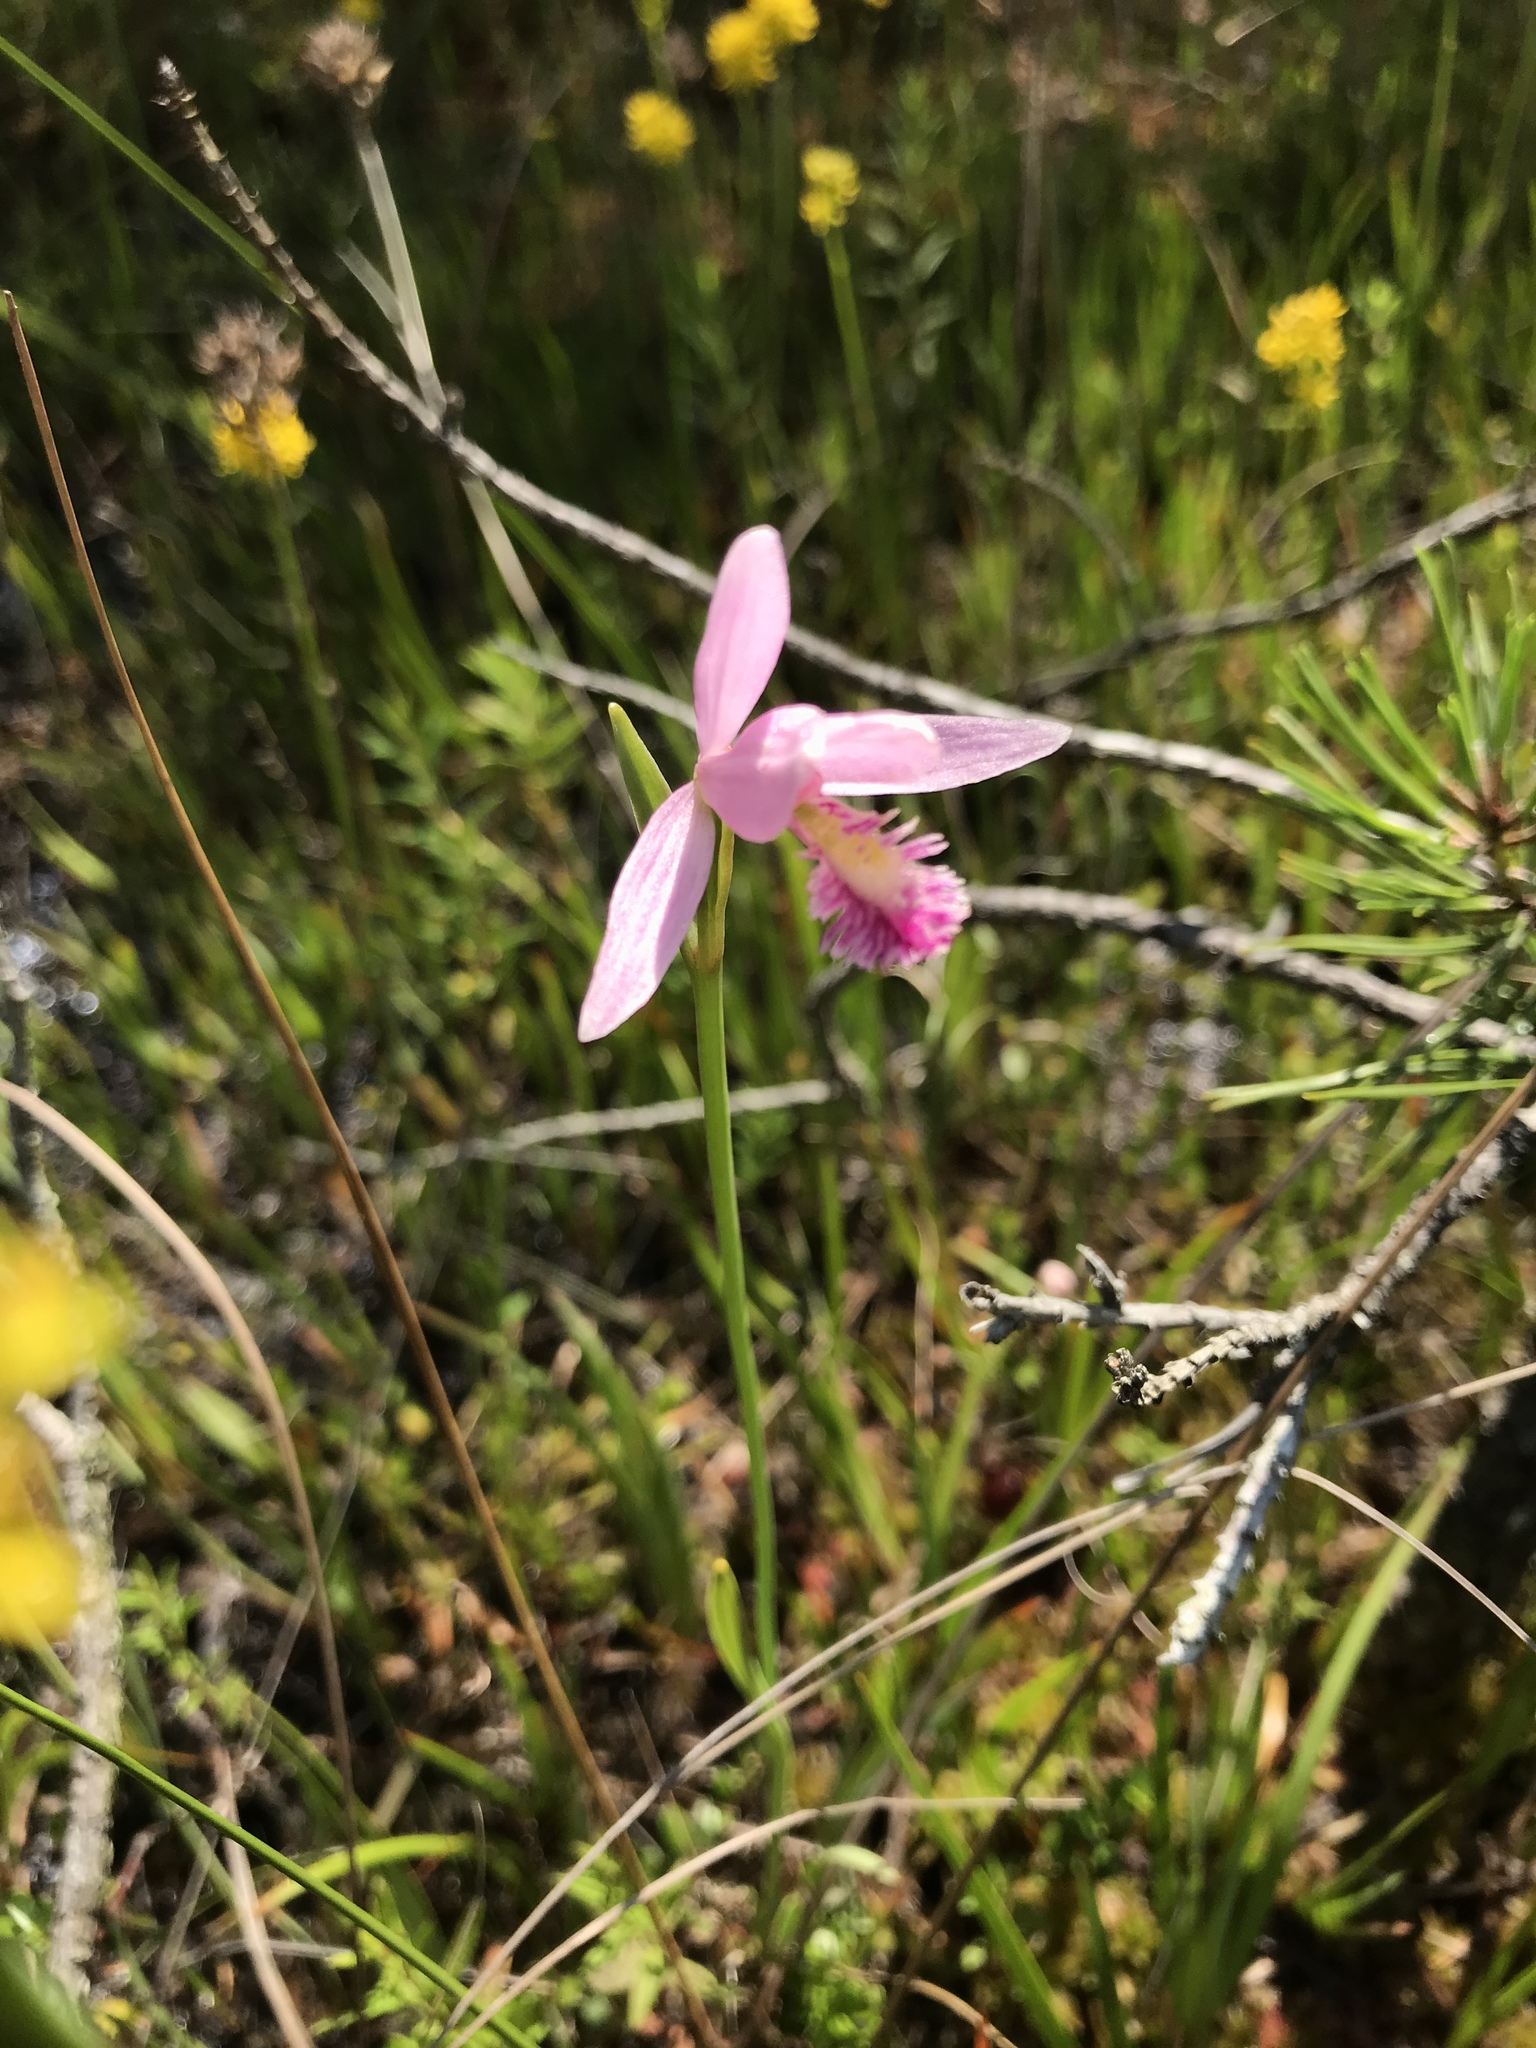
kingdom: Plantae
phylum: Tracheophyta
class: Liliopsida
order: Asparagales
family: Orchidaceae
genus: Pogonia
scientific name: Pogonia ophioglossoides
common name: Rose pogonia
